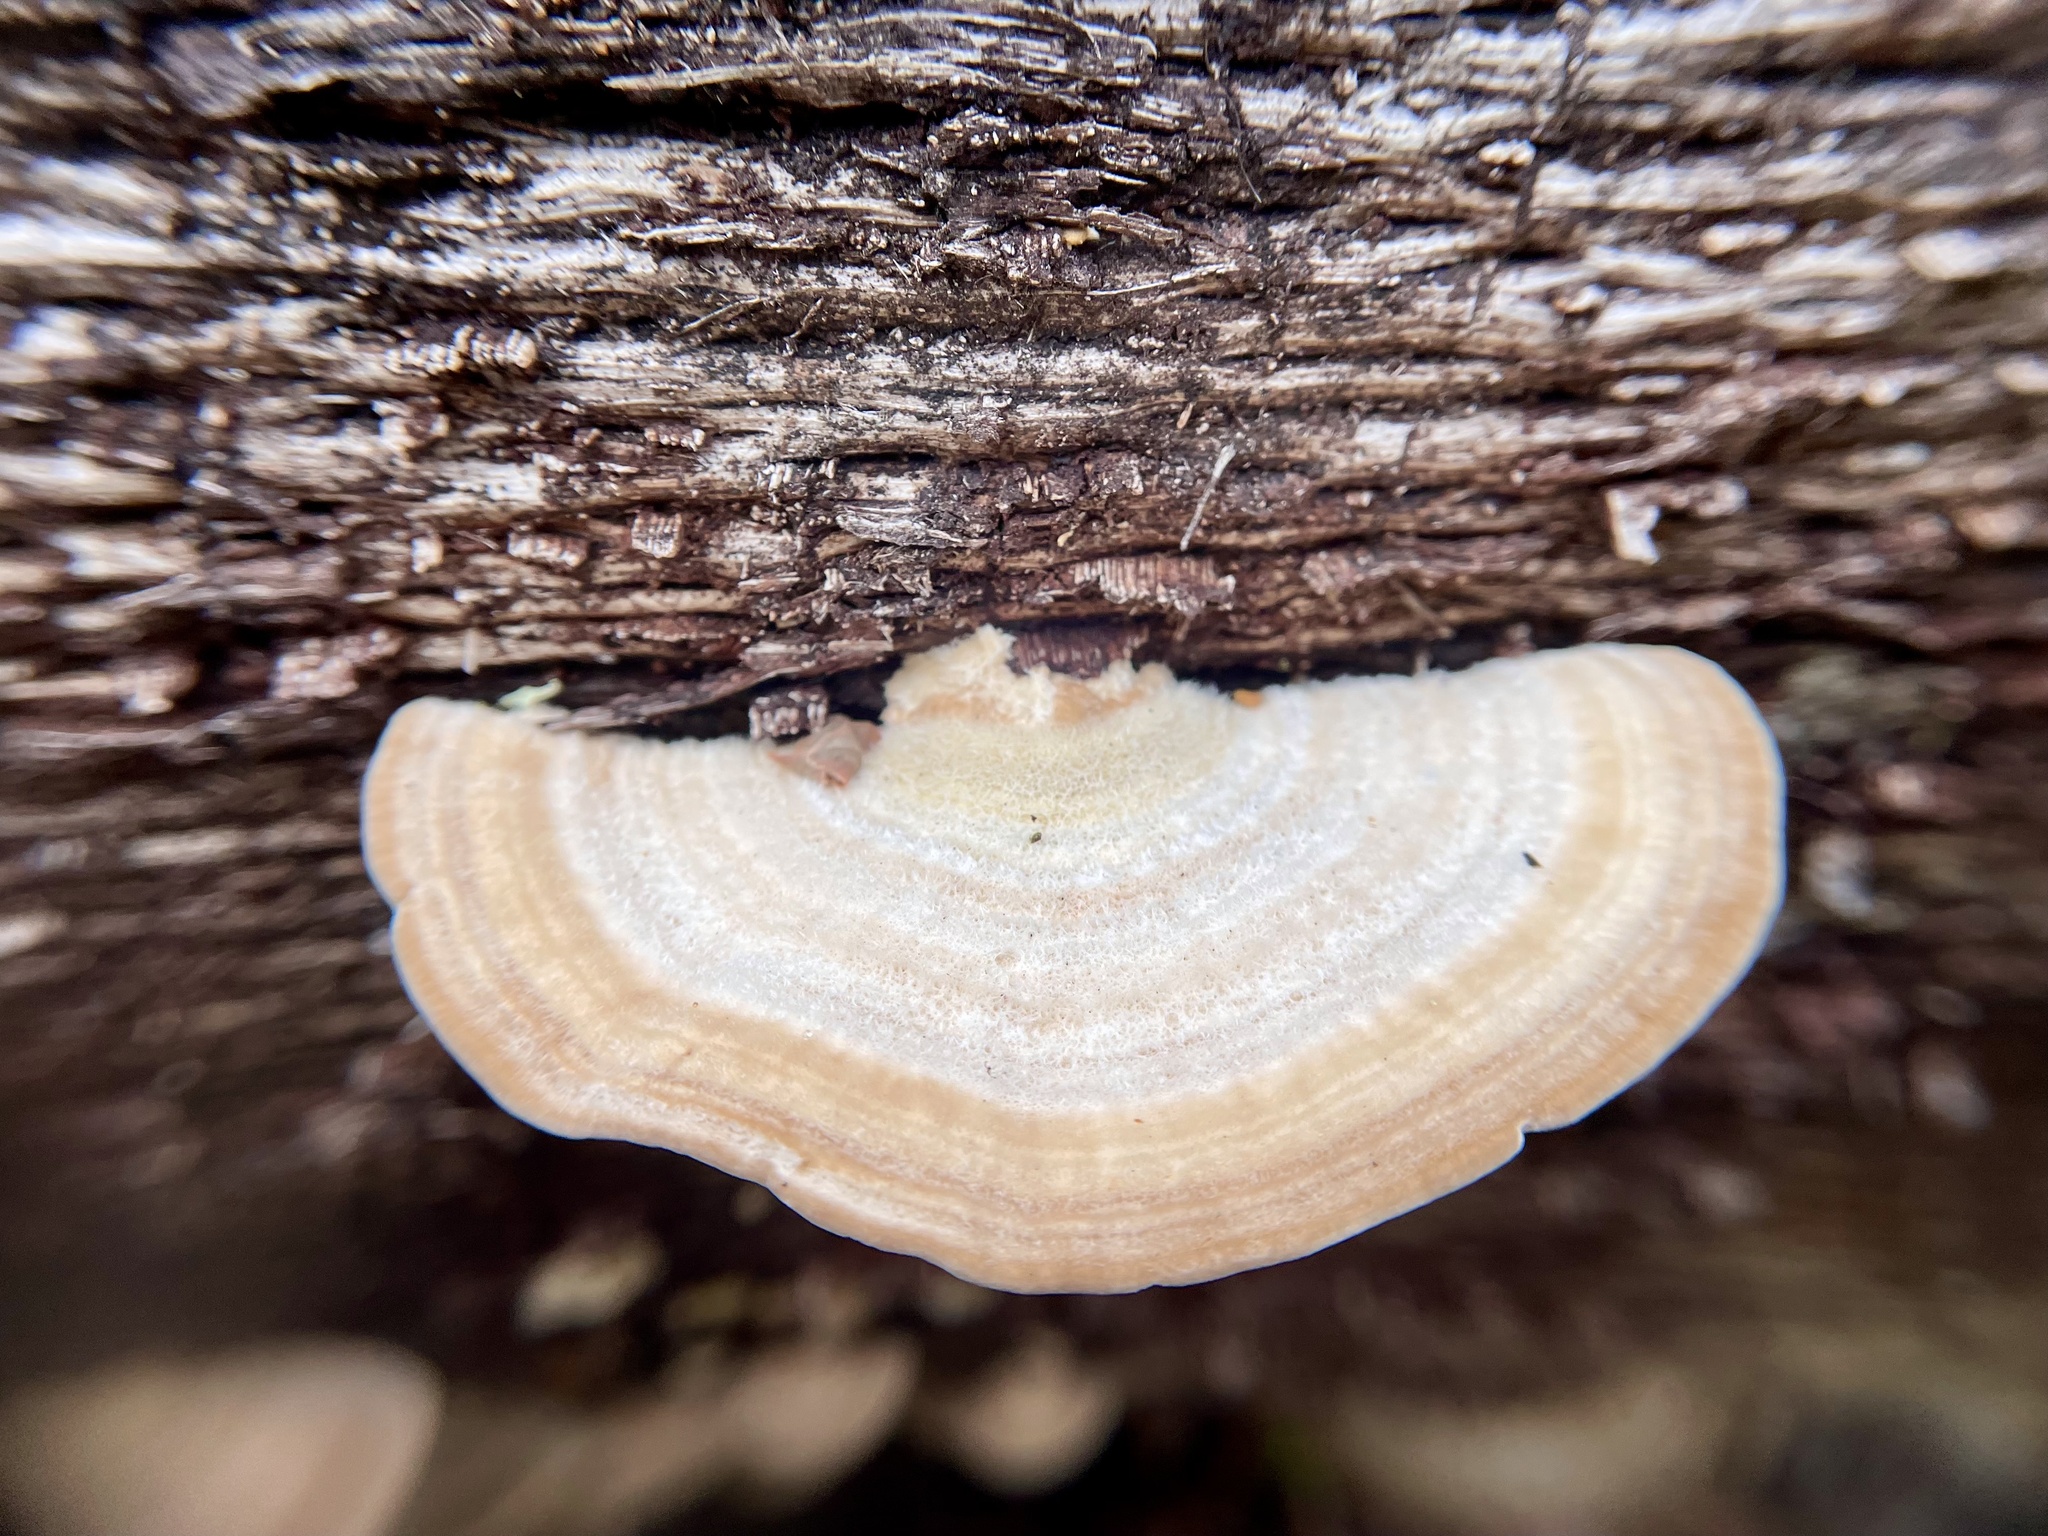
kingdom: Fungi
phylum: Basidiomycota
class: Agaricomycetes
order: Polyporales
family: Polyporaceae
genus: Lenzites
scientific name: Lenzites betulinus
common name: Birch mazegill
